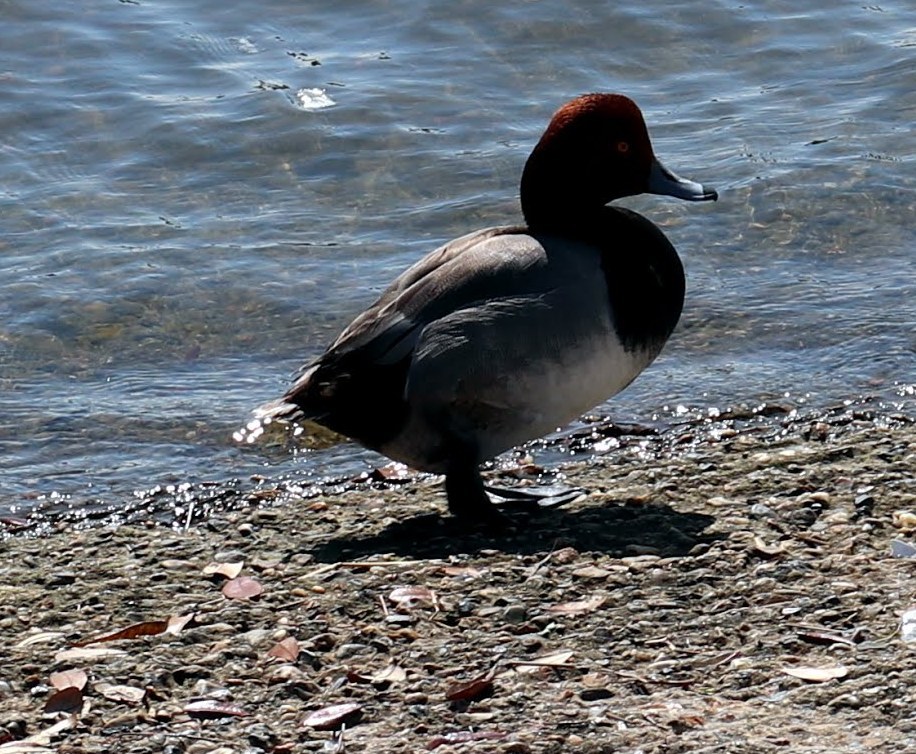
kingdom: Animalia
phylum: Chordata
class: Aves
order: Anseriformes
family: Anatidae
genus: Aythya
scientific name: Aythya americana
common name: Redhead
